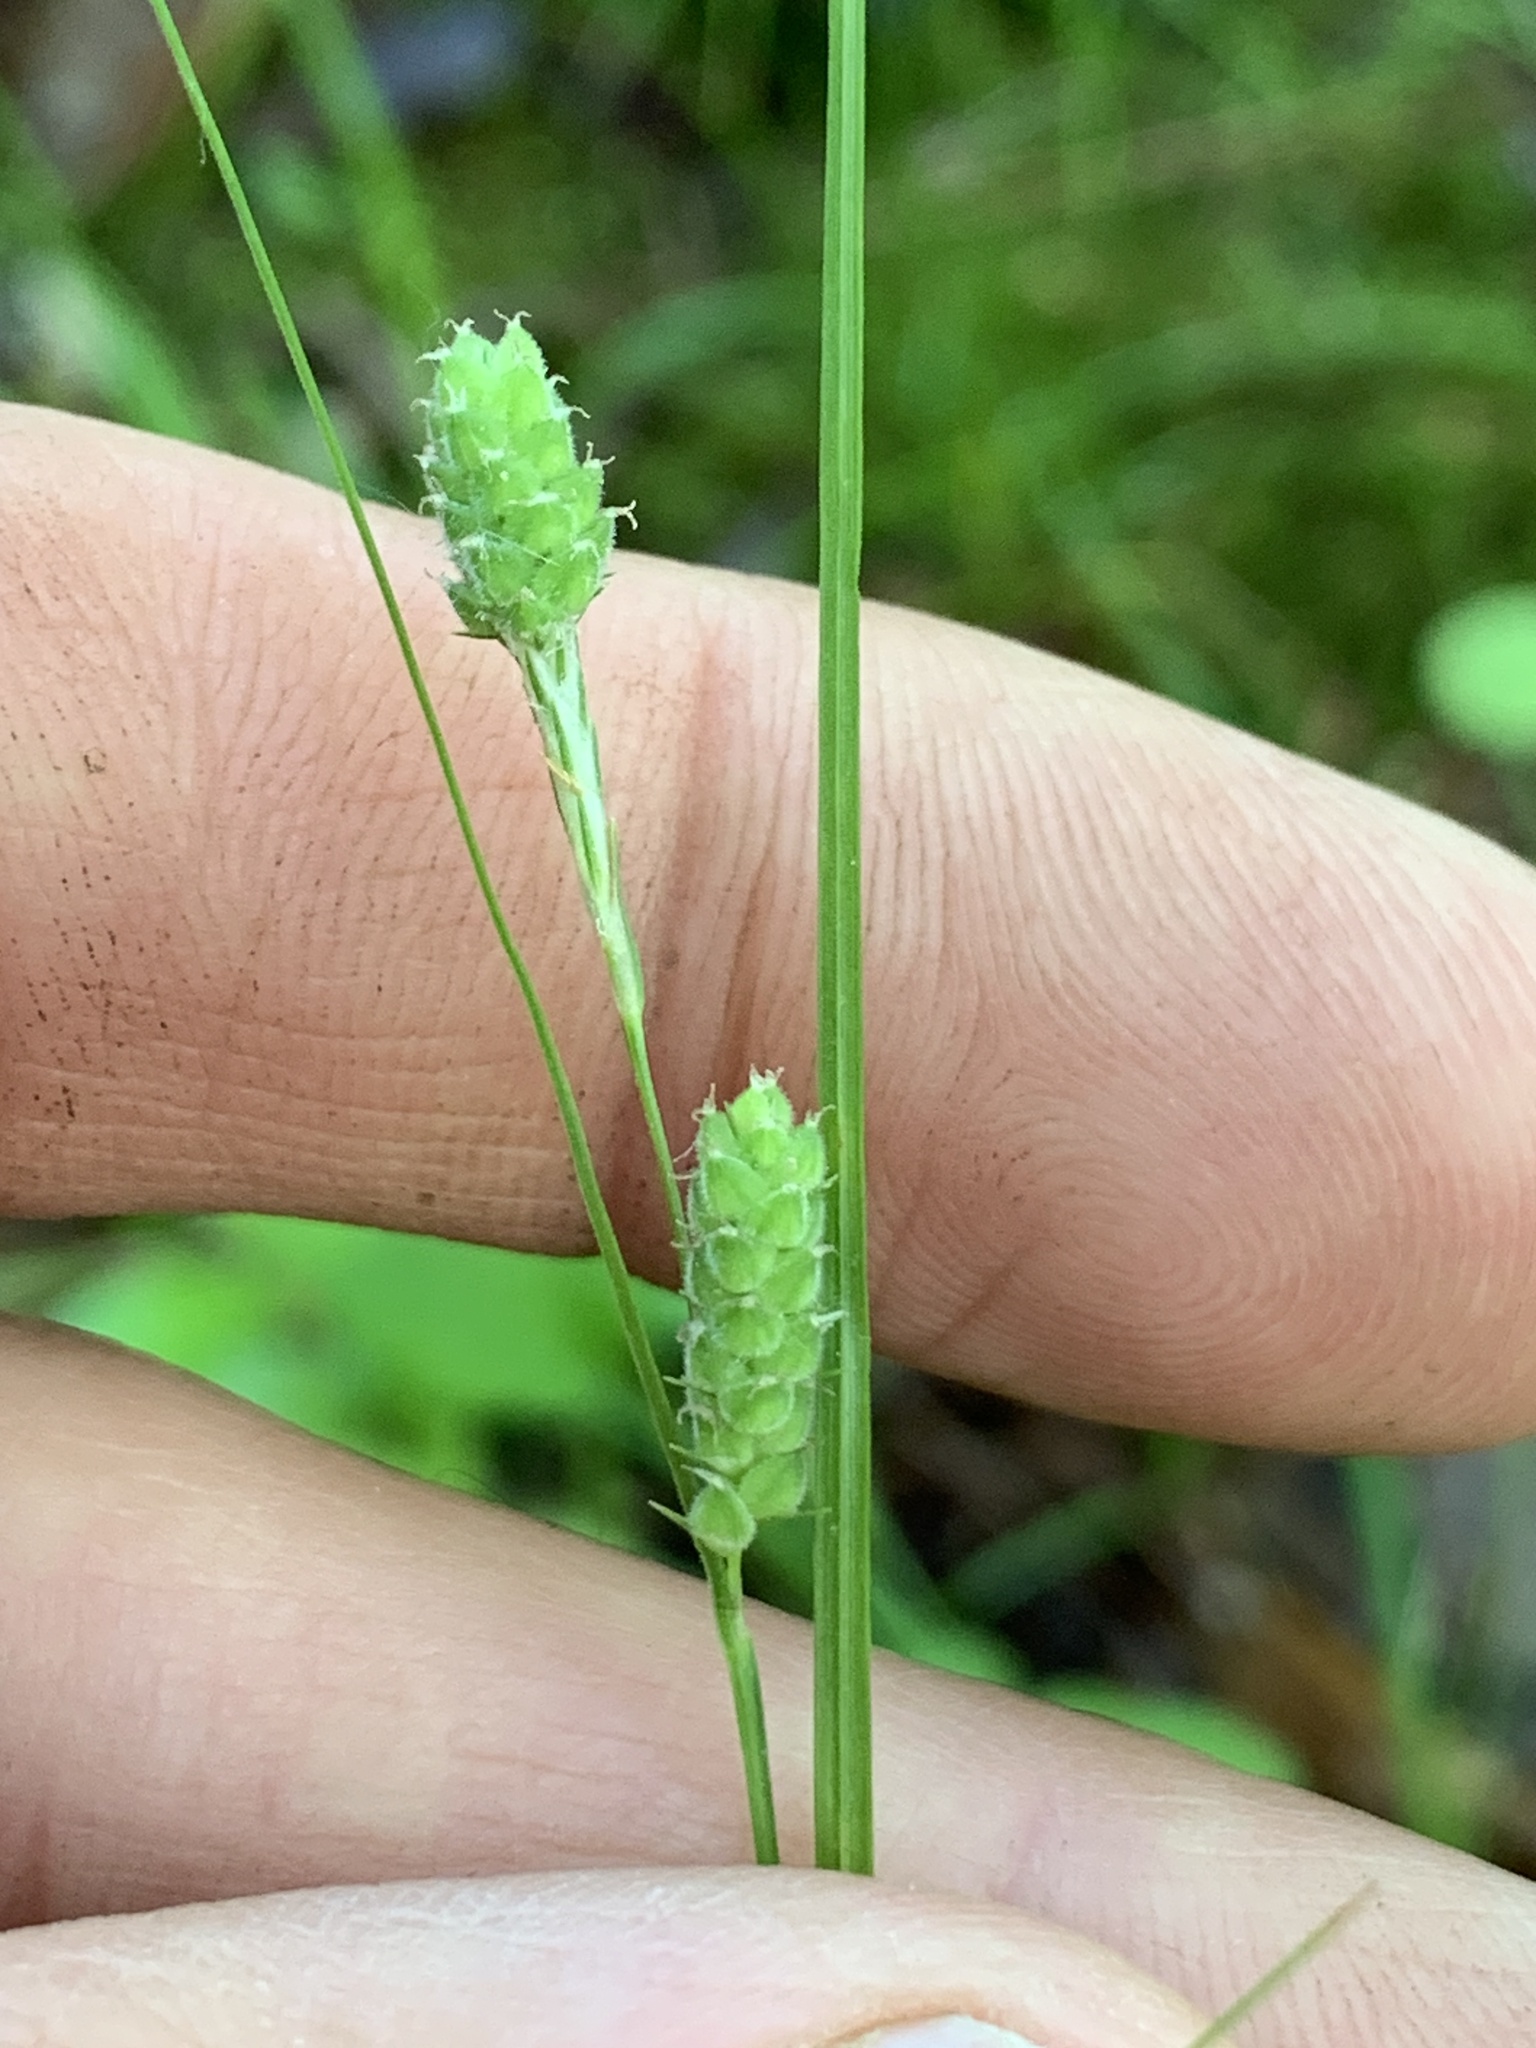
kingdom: Plantae
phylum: Tracheophyta
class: Liliopsida
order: Poales
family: Cyperaceae
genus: Carex
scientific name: Carex swanii
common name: Downy green sedge
